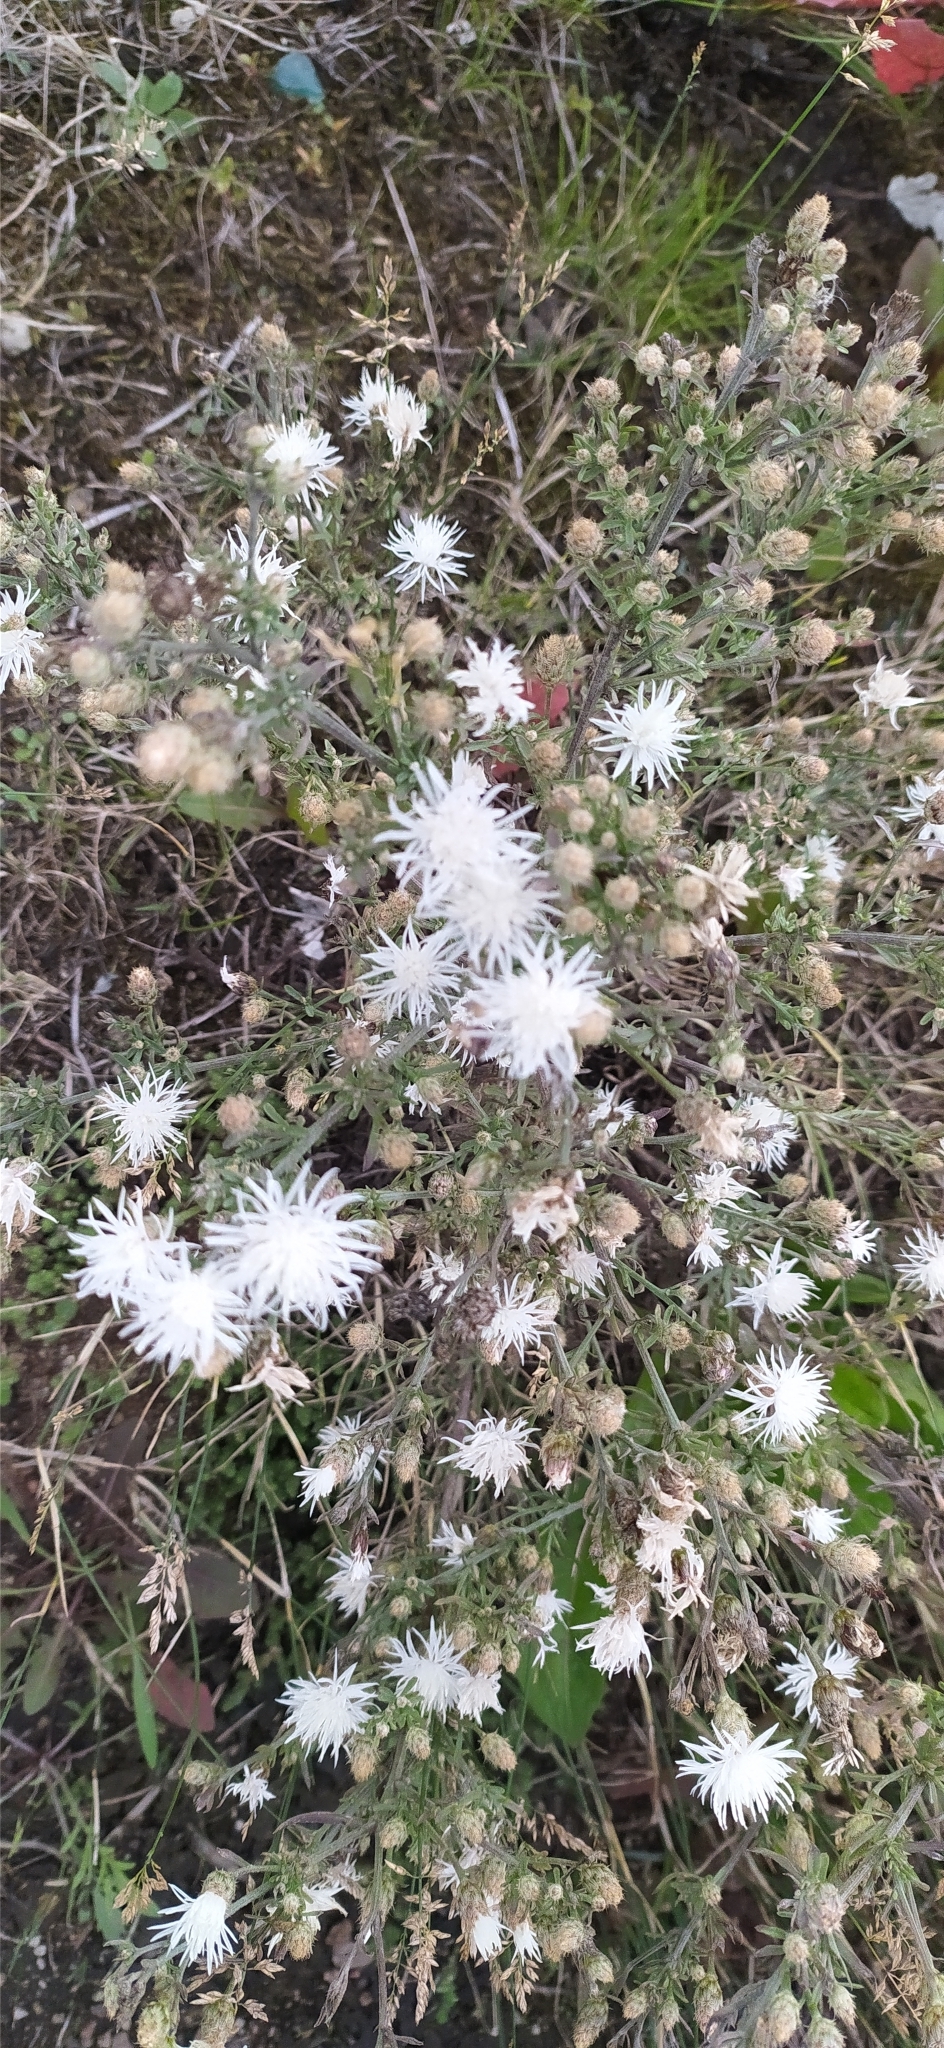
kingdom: Plantae
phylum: Tracheophyta
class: Magnoliopsida
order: Asterales
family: Asteraceae
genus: Centaurea
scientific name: Centaurea stoebe
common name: Spotted knapweed
